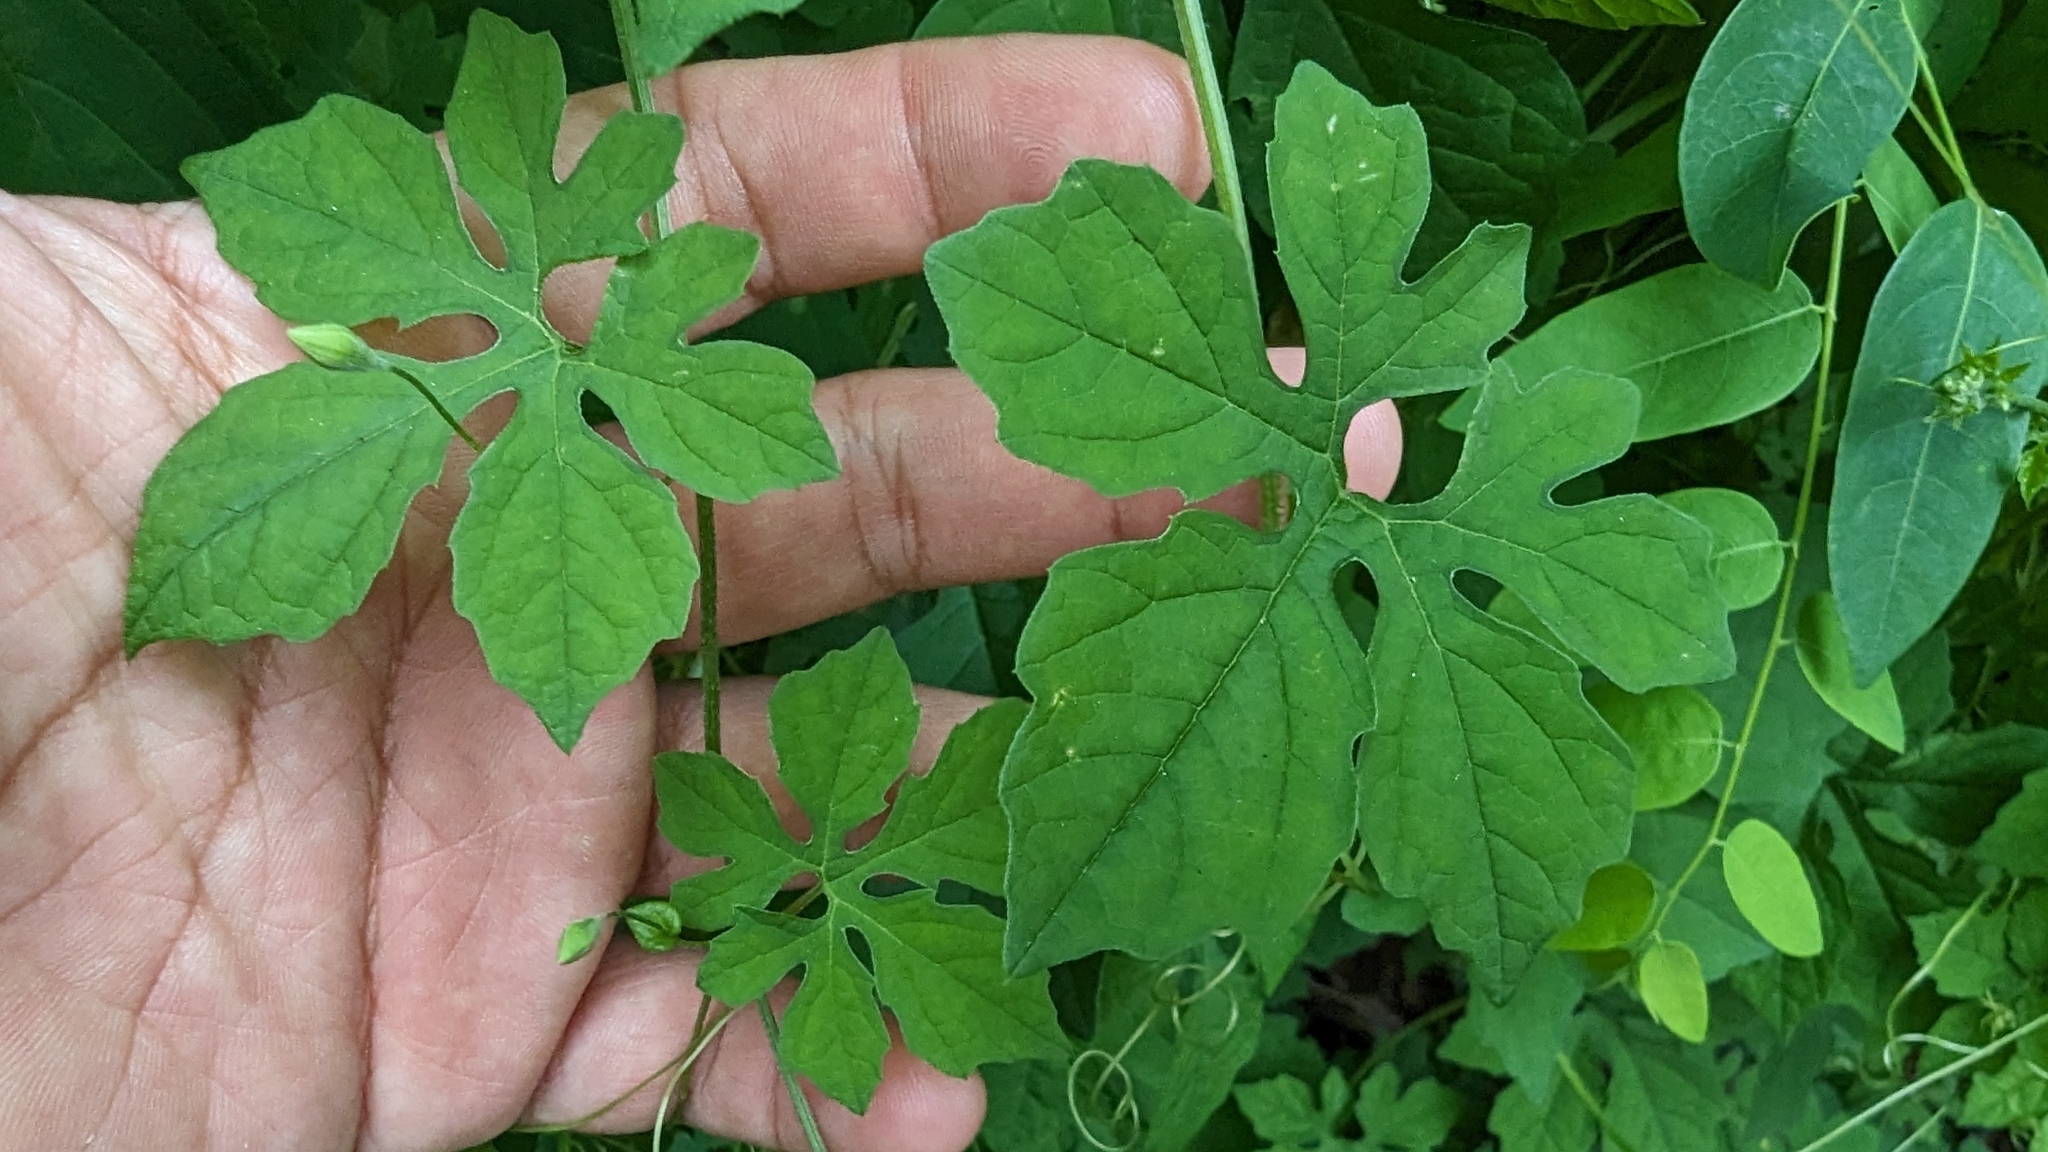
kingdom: Plantae
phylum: Tracheophyta
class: Magnoliopsida
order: Cucurbitales
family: Cucurbitaceae
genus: Momordica
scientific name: Momordica charantia
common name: Balsampear
